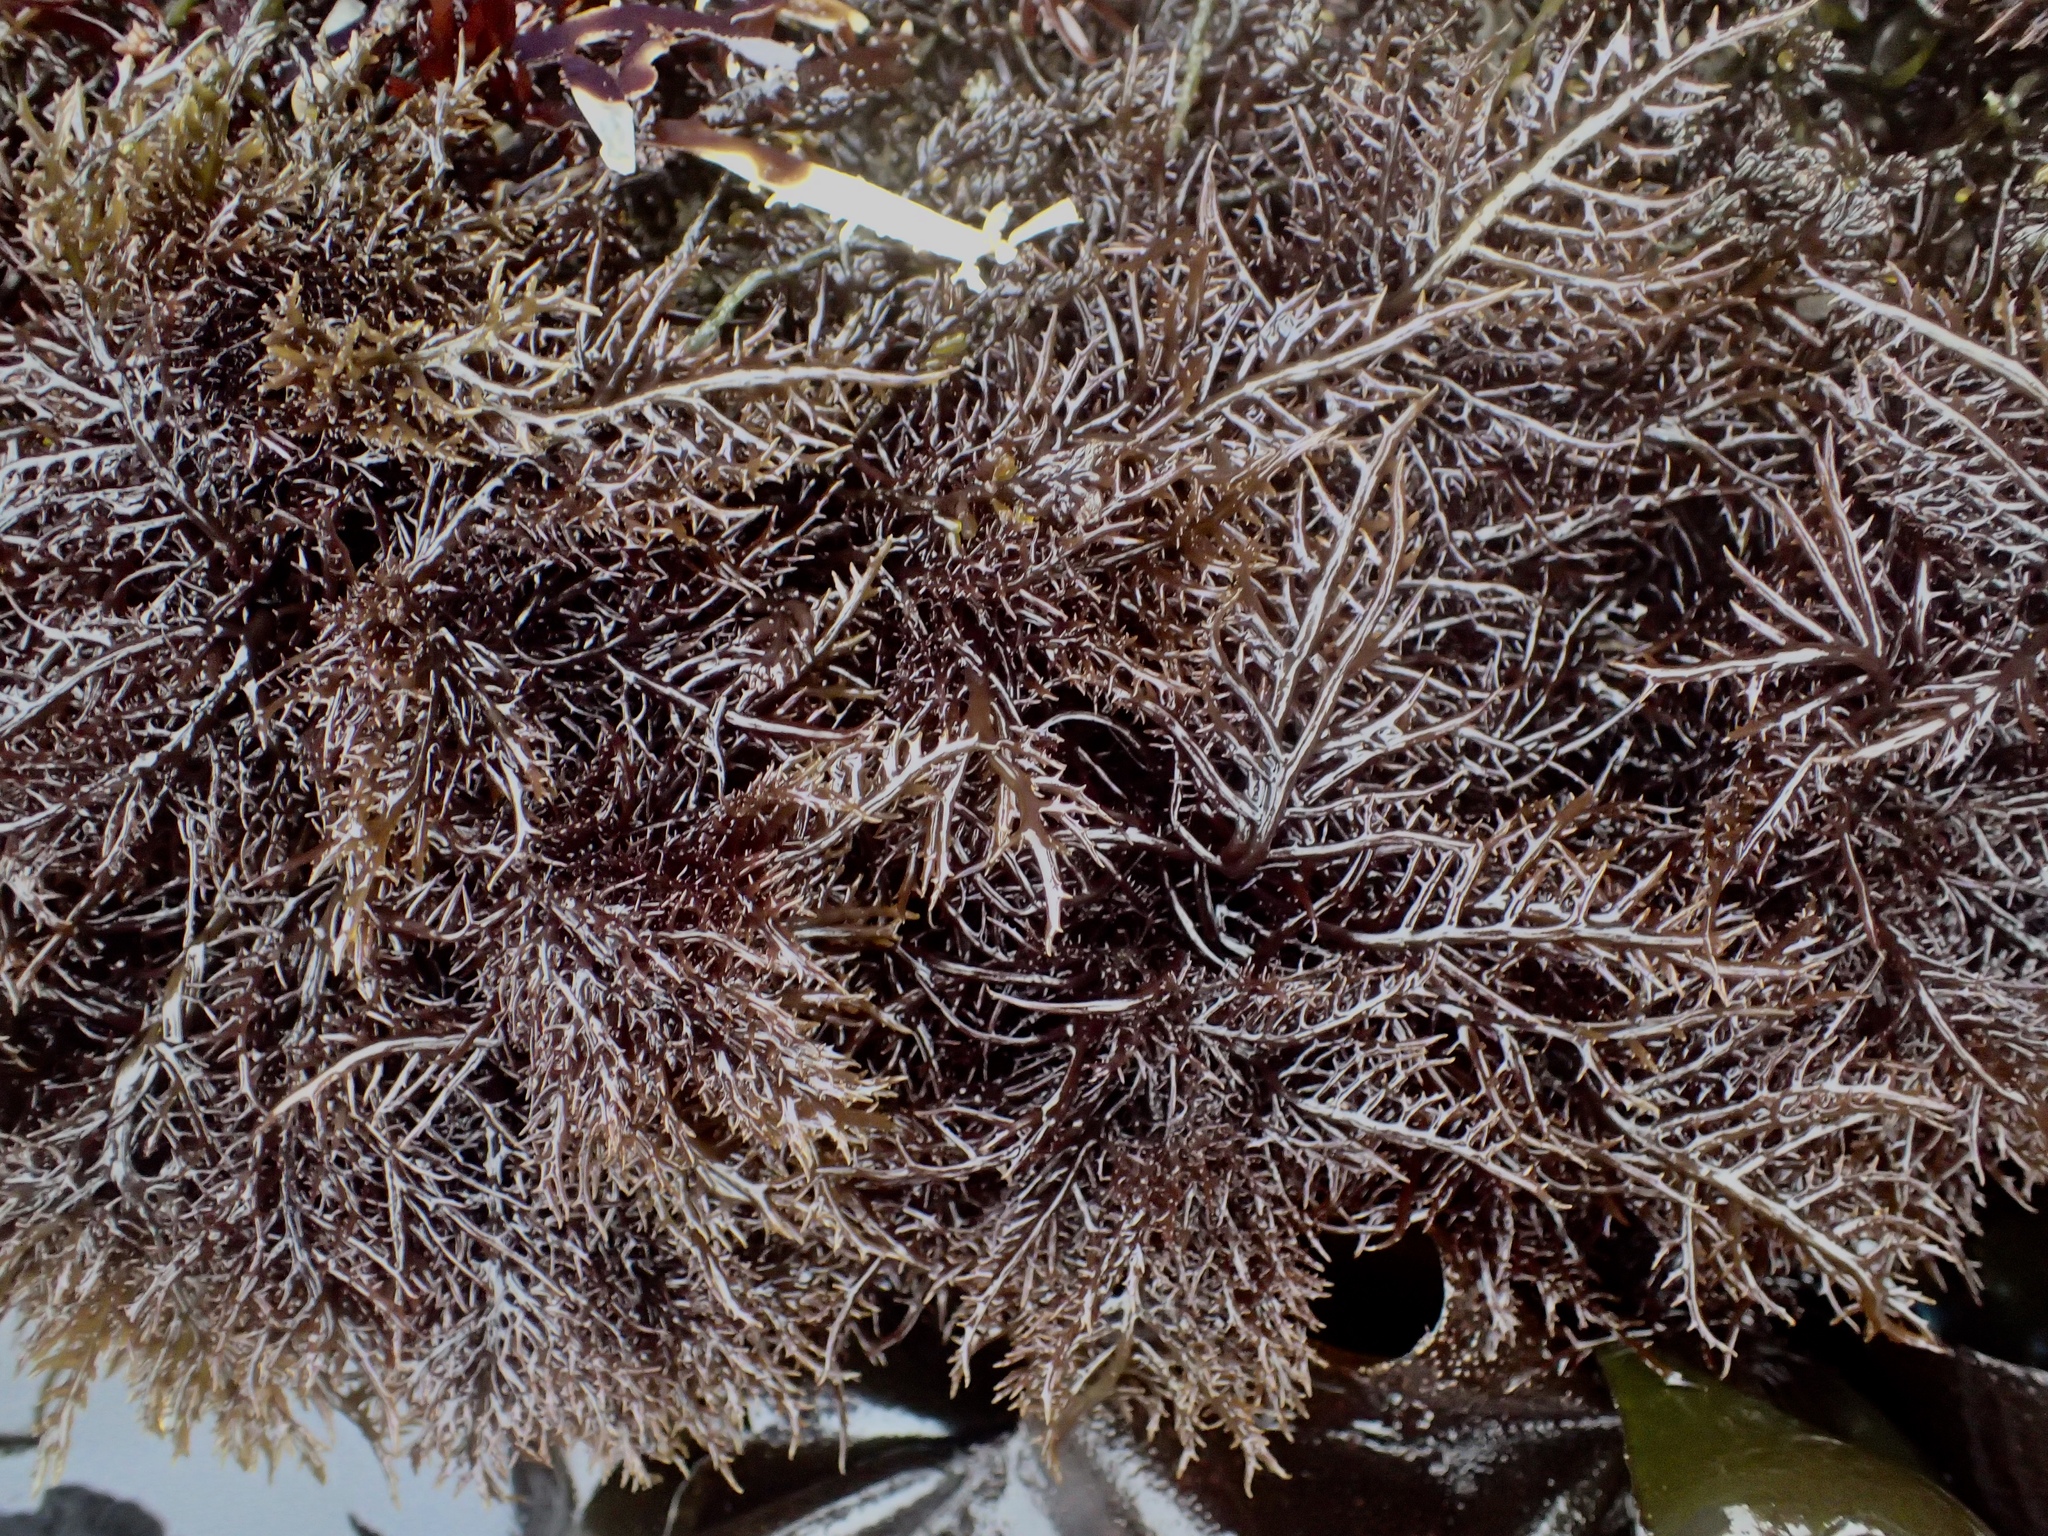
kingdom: Plantae
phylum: Rhodophyta
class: Florideophyceae
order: Gigartinales
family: Gigartinaceae
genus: Chondracanthus
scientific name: Chondracanthus canaliculatus
